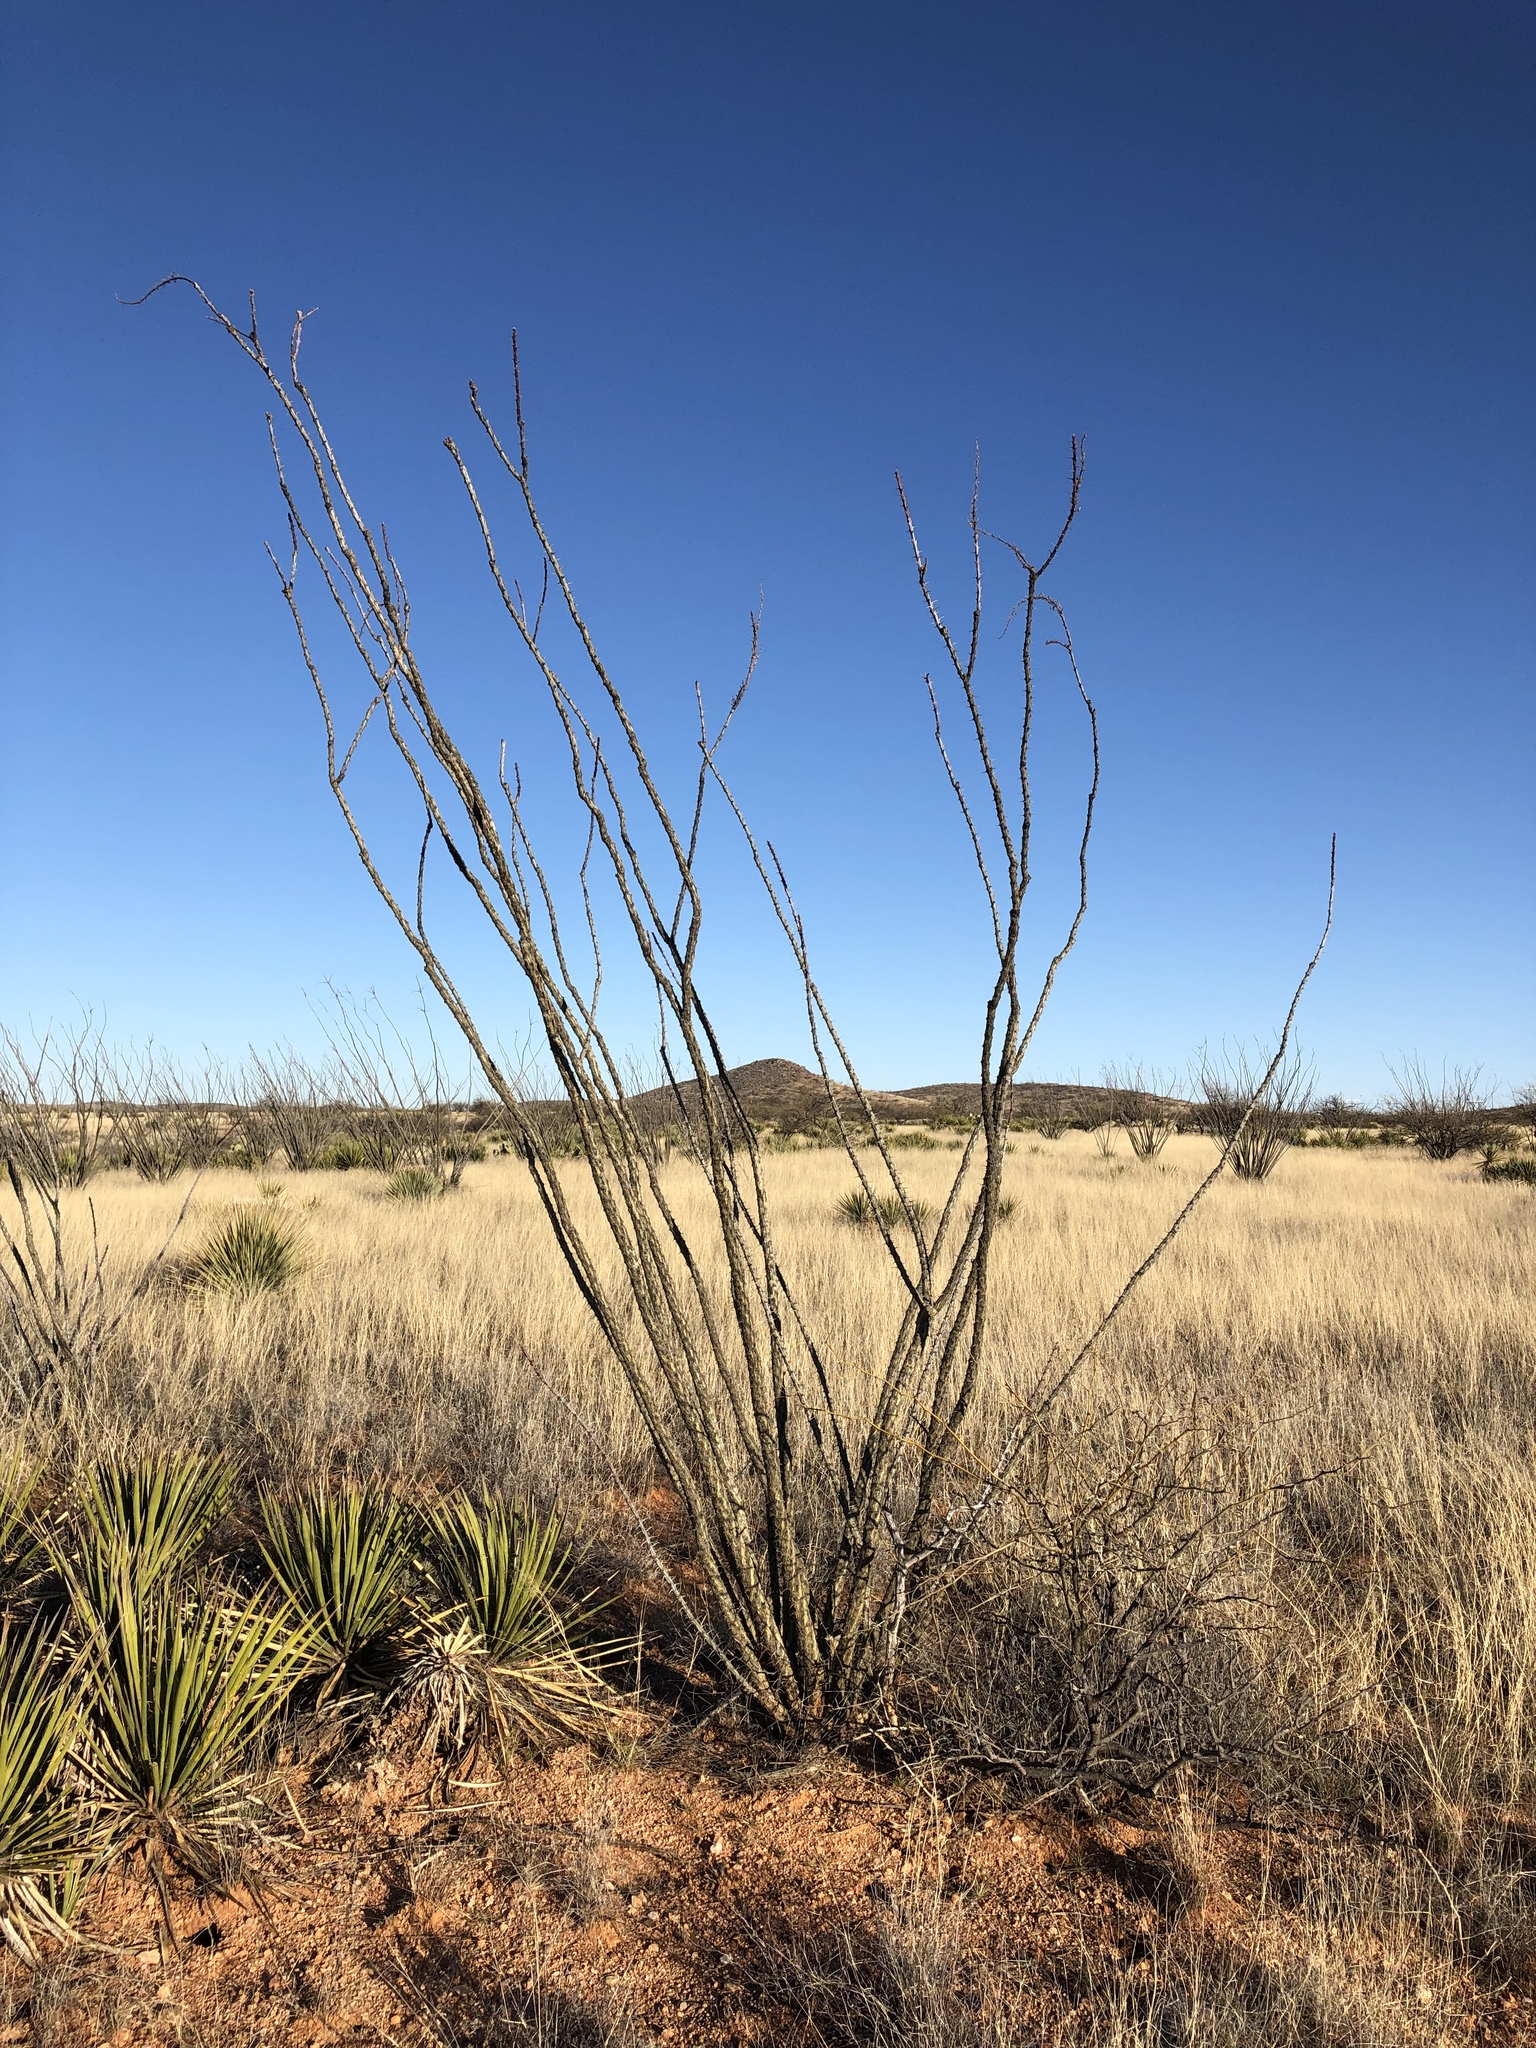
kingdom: Plantae
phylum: Tracheophyta
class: Magnoliopsida
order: Ericales
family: Fouquieriaceae
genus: Fouquieria
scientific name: Fouquieria splendens
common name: Vine-cactus
